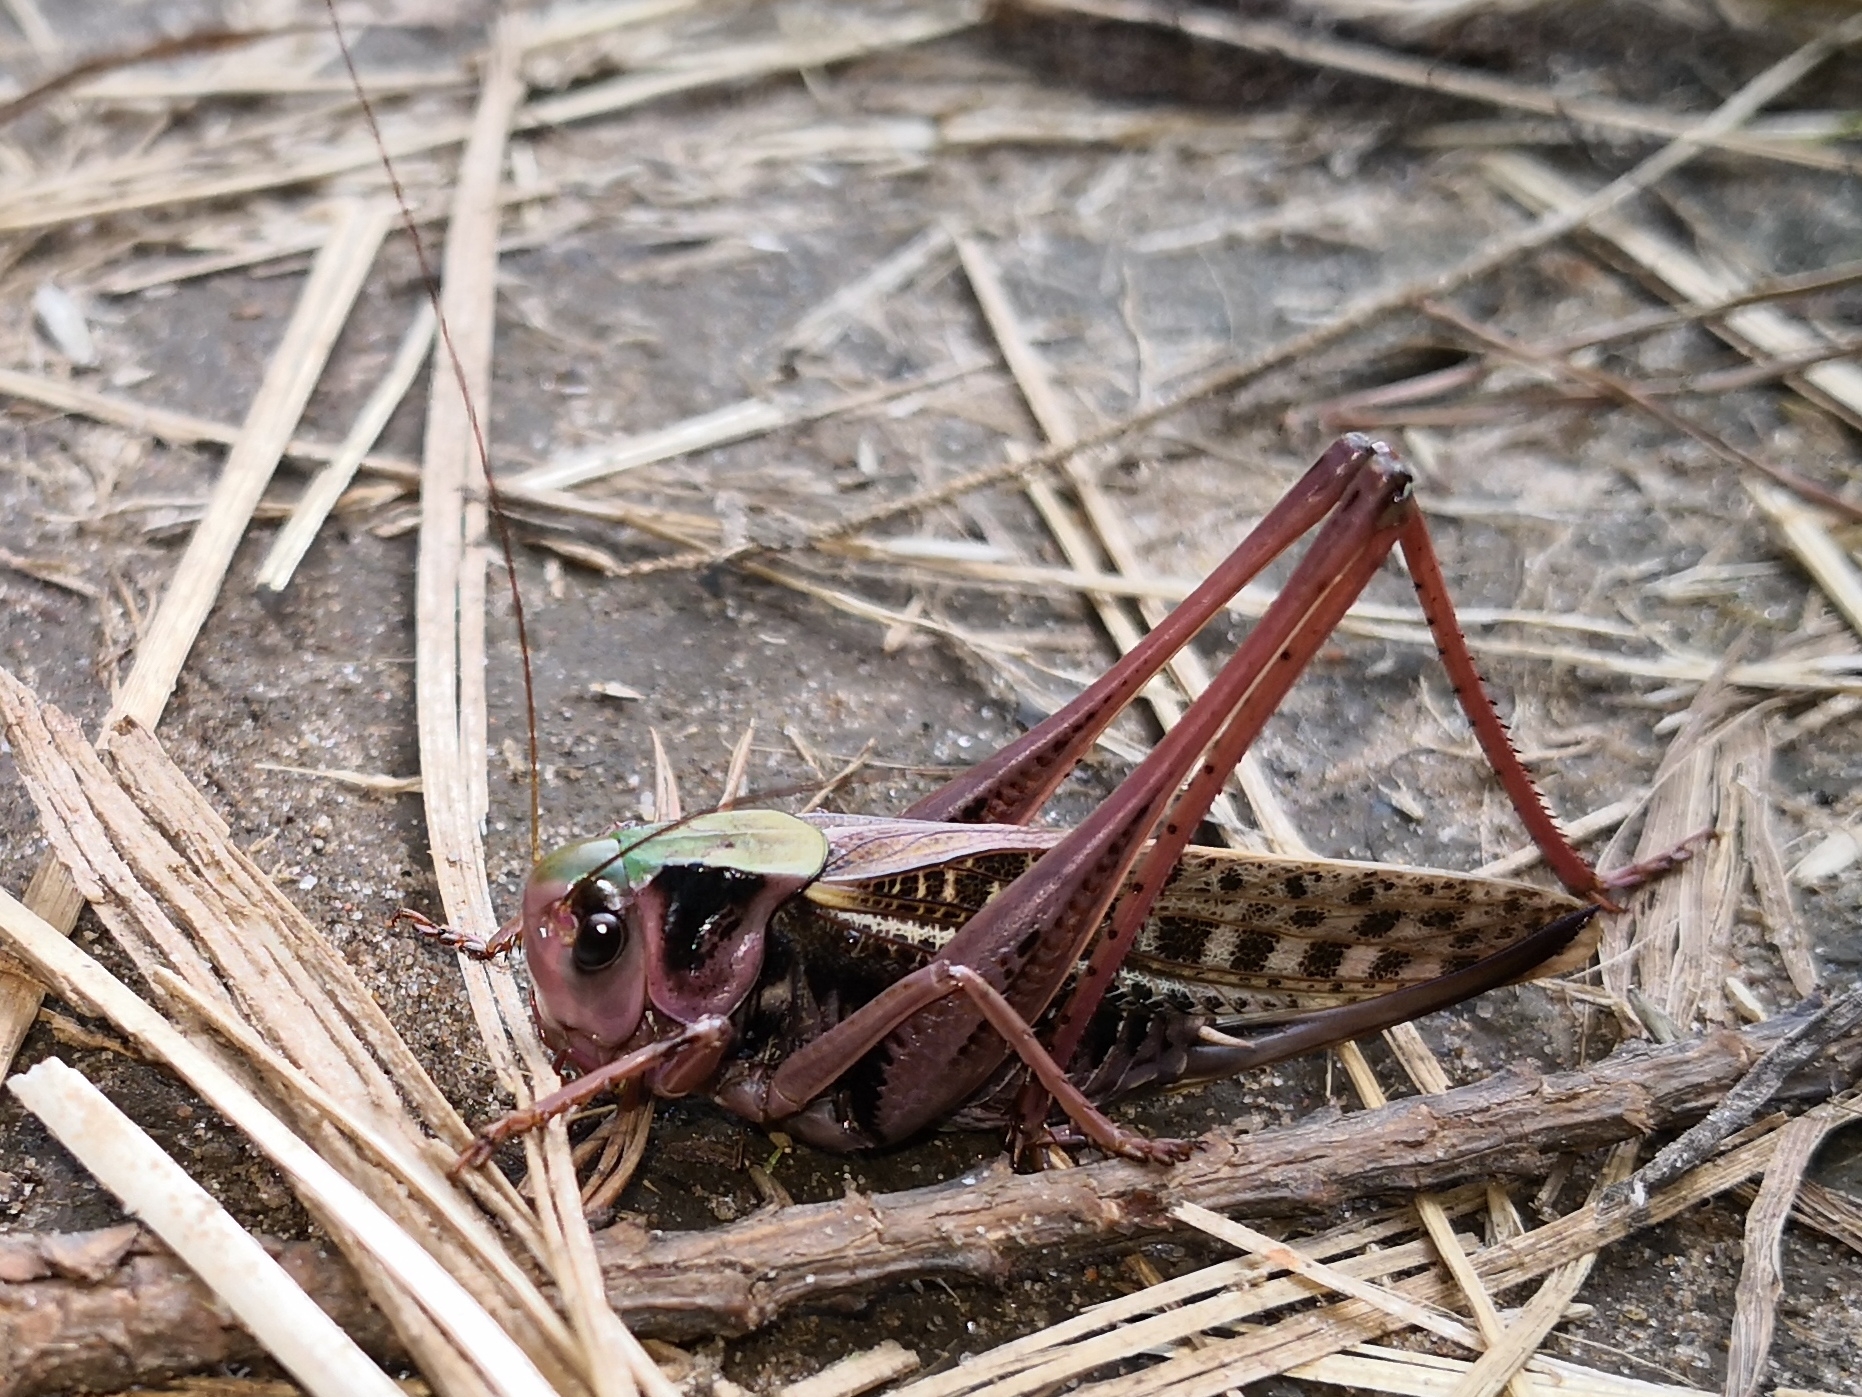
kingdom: Animalia
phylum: Arthropoda
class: Insecta
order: Orthoptera
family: Tettigoniidae
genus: Decticus
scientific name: Decticus verrucivorus
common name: Wart-biter
